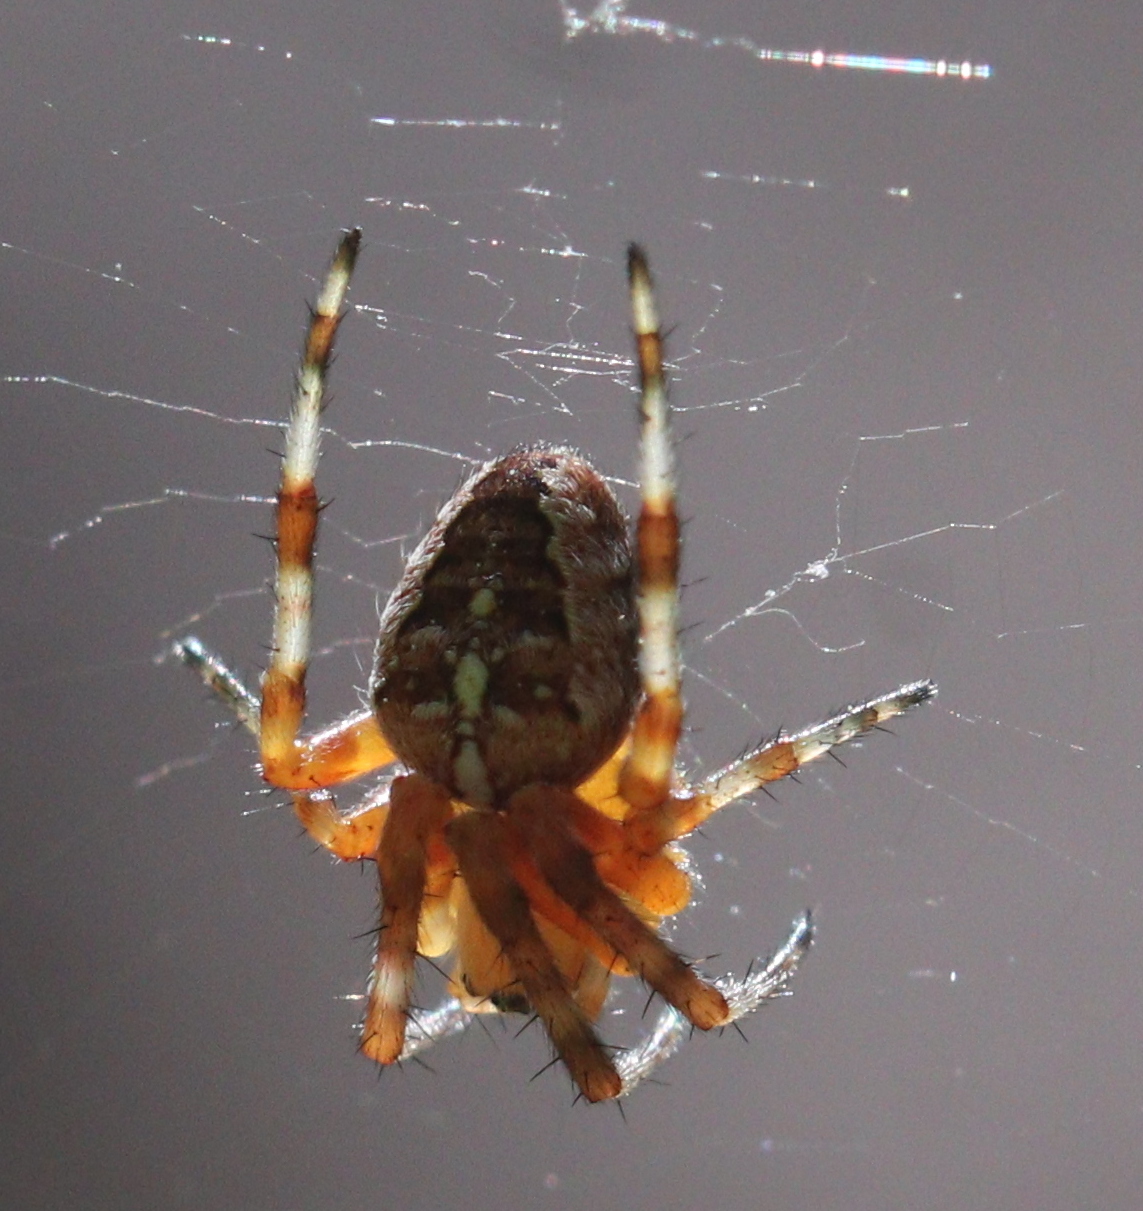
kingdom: Animalia
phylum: Arthropoda
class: Arachnida
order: Araneae
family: Araneidae
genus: Araneus
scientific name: Araneus diadematus
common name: Cross orbweaver
